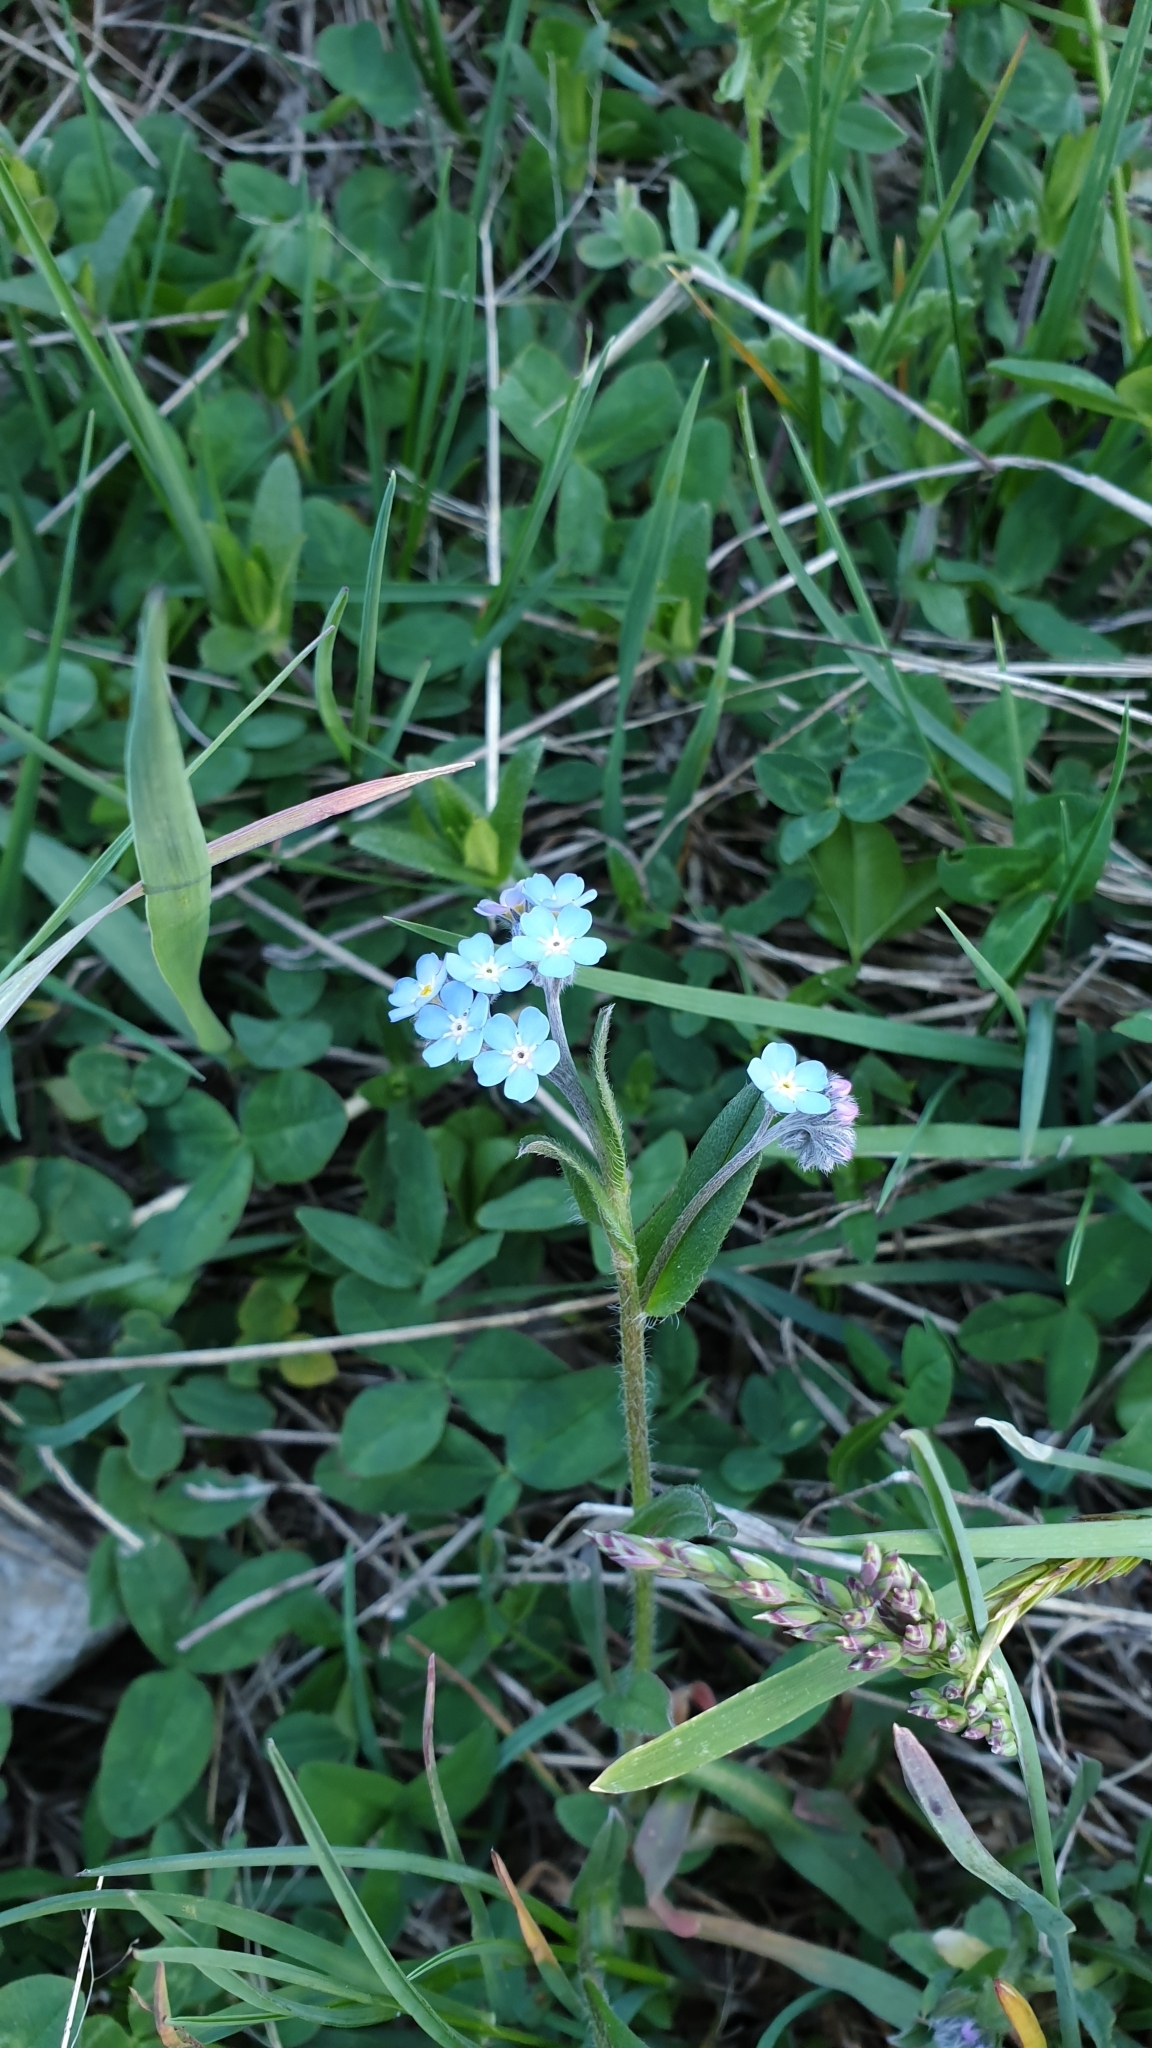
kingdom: Plantae
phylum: Tracheophyta
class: Magnoliopsida
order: Boraginales
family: Boraginaceae
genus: Myosotis
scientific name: Myosotis alpestris
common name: Alpine forget-me-not
